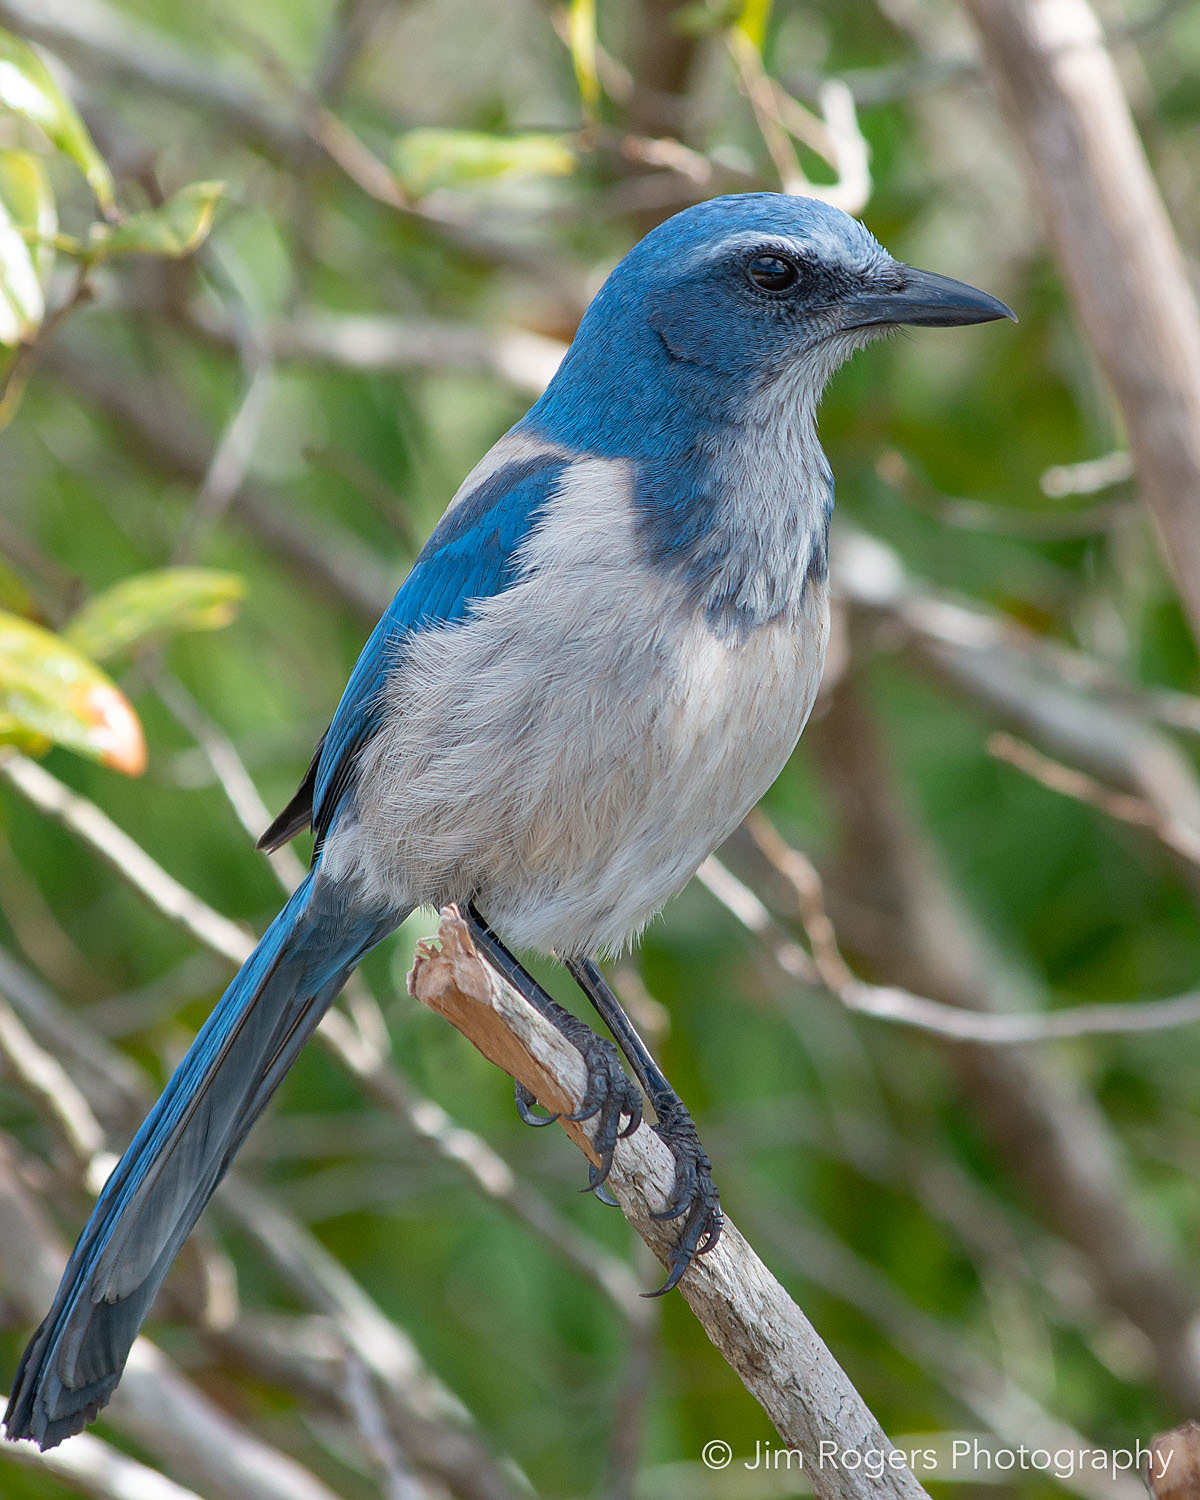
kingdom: Animalia
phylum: Chordata
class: Aves
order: Passeriformes
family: Corvidae
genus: Aphelocoma
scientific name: Aphelocoma coerulescens
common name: Florida scrub jay
